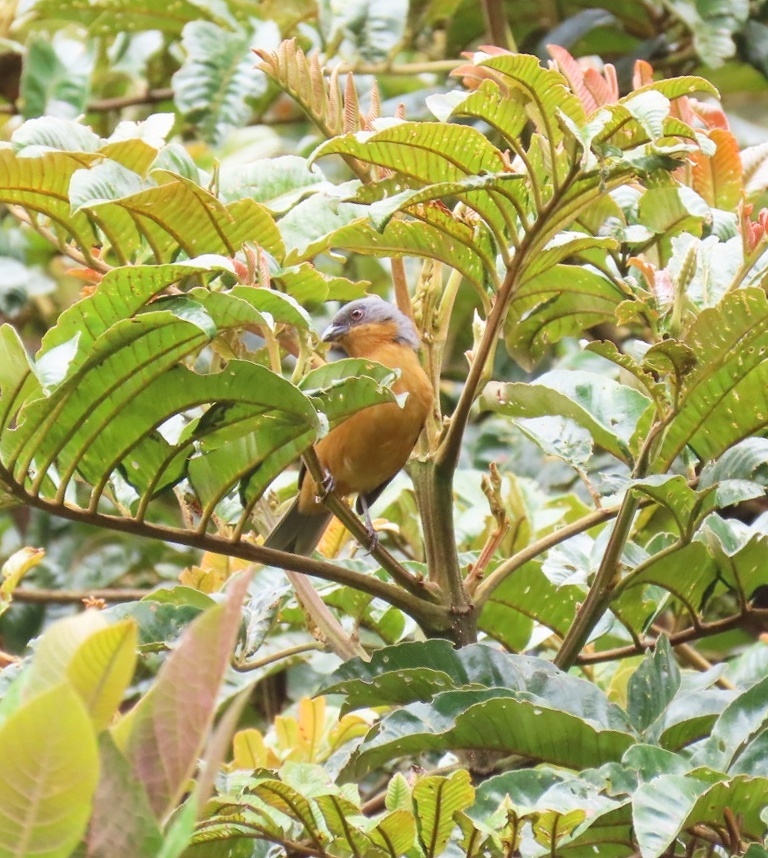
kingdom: Animalia
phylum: Chordata
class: Aves
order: Passeriformes
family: Thraupidae
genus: Creurgops
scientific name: Creurgops verticalis
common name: Rufous-crested tanager
